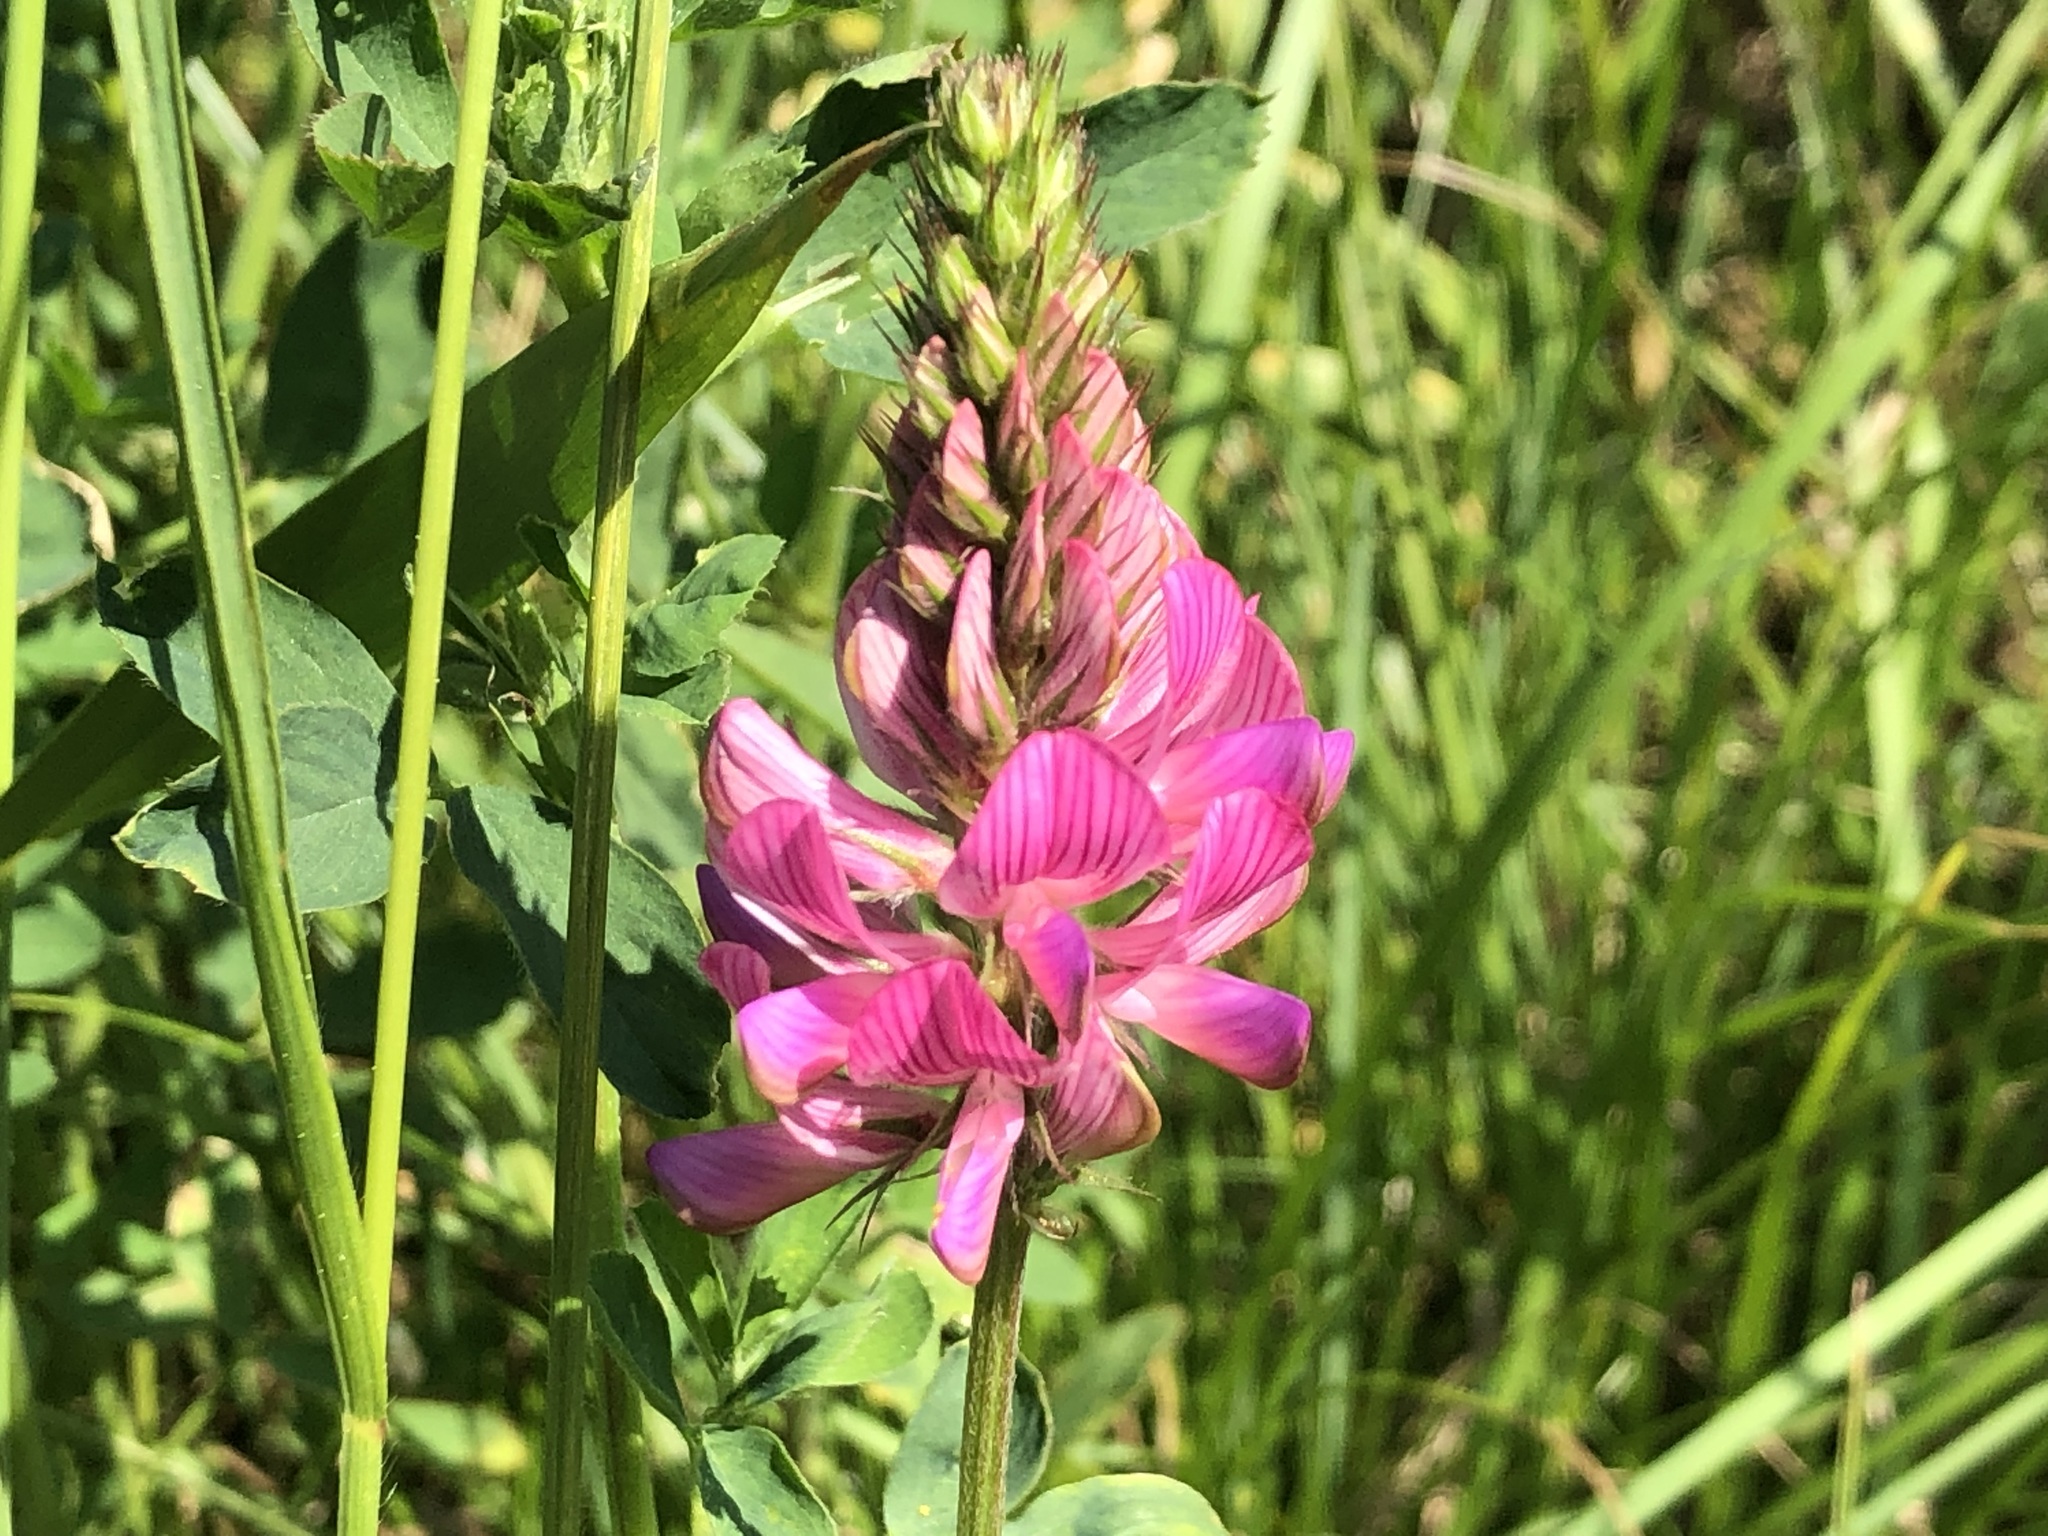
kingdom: Plantae
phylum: Tracheophyta
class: Magnoliopsida
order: Fabales
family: Fabaceae
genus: Onobrychis
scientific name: Onobrychis viciifolia
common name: Sainfoin
